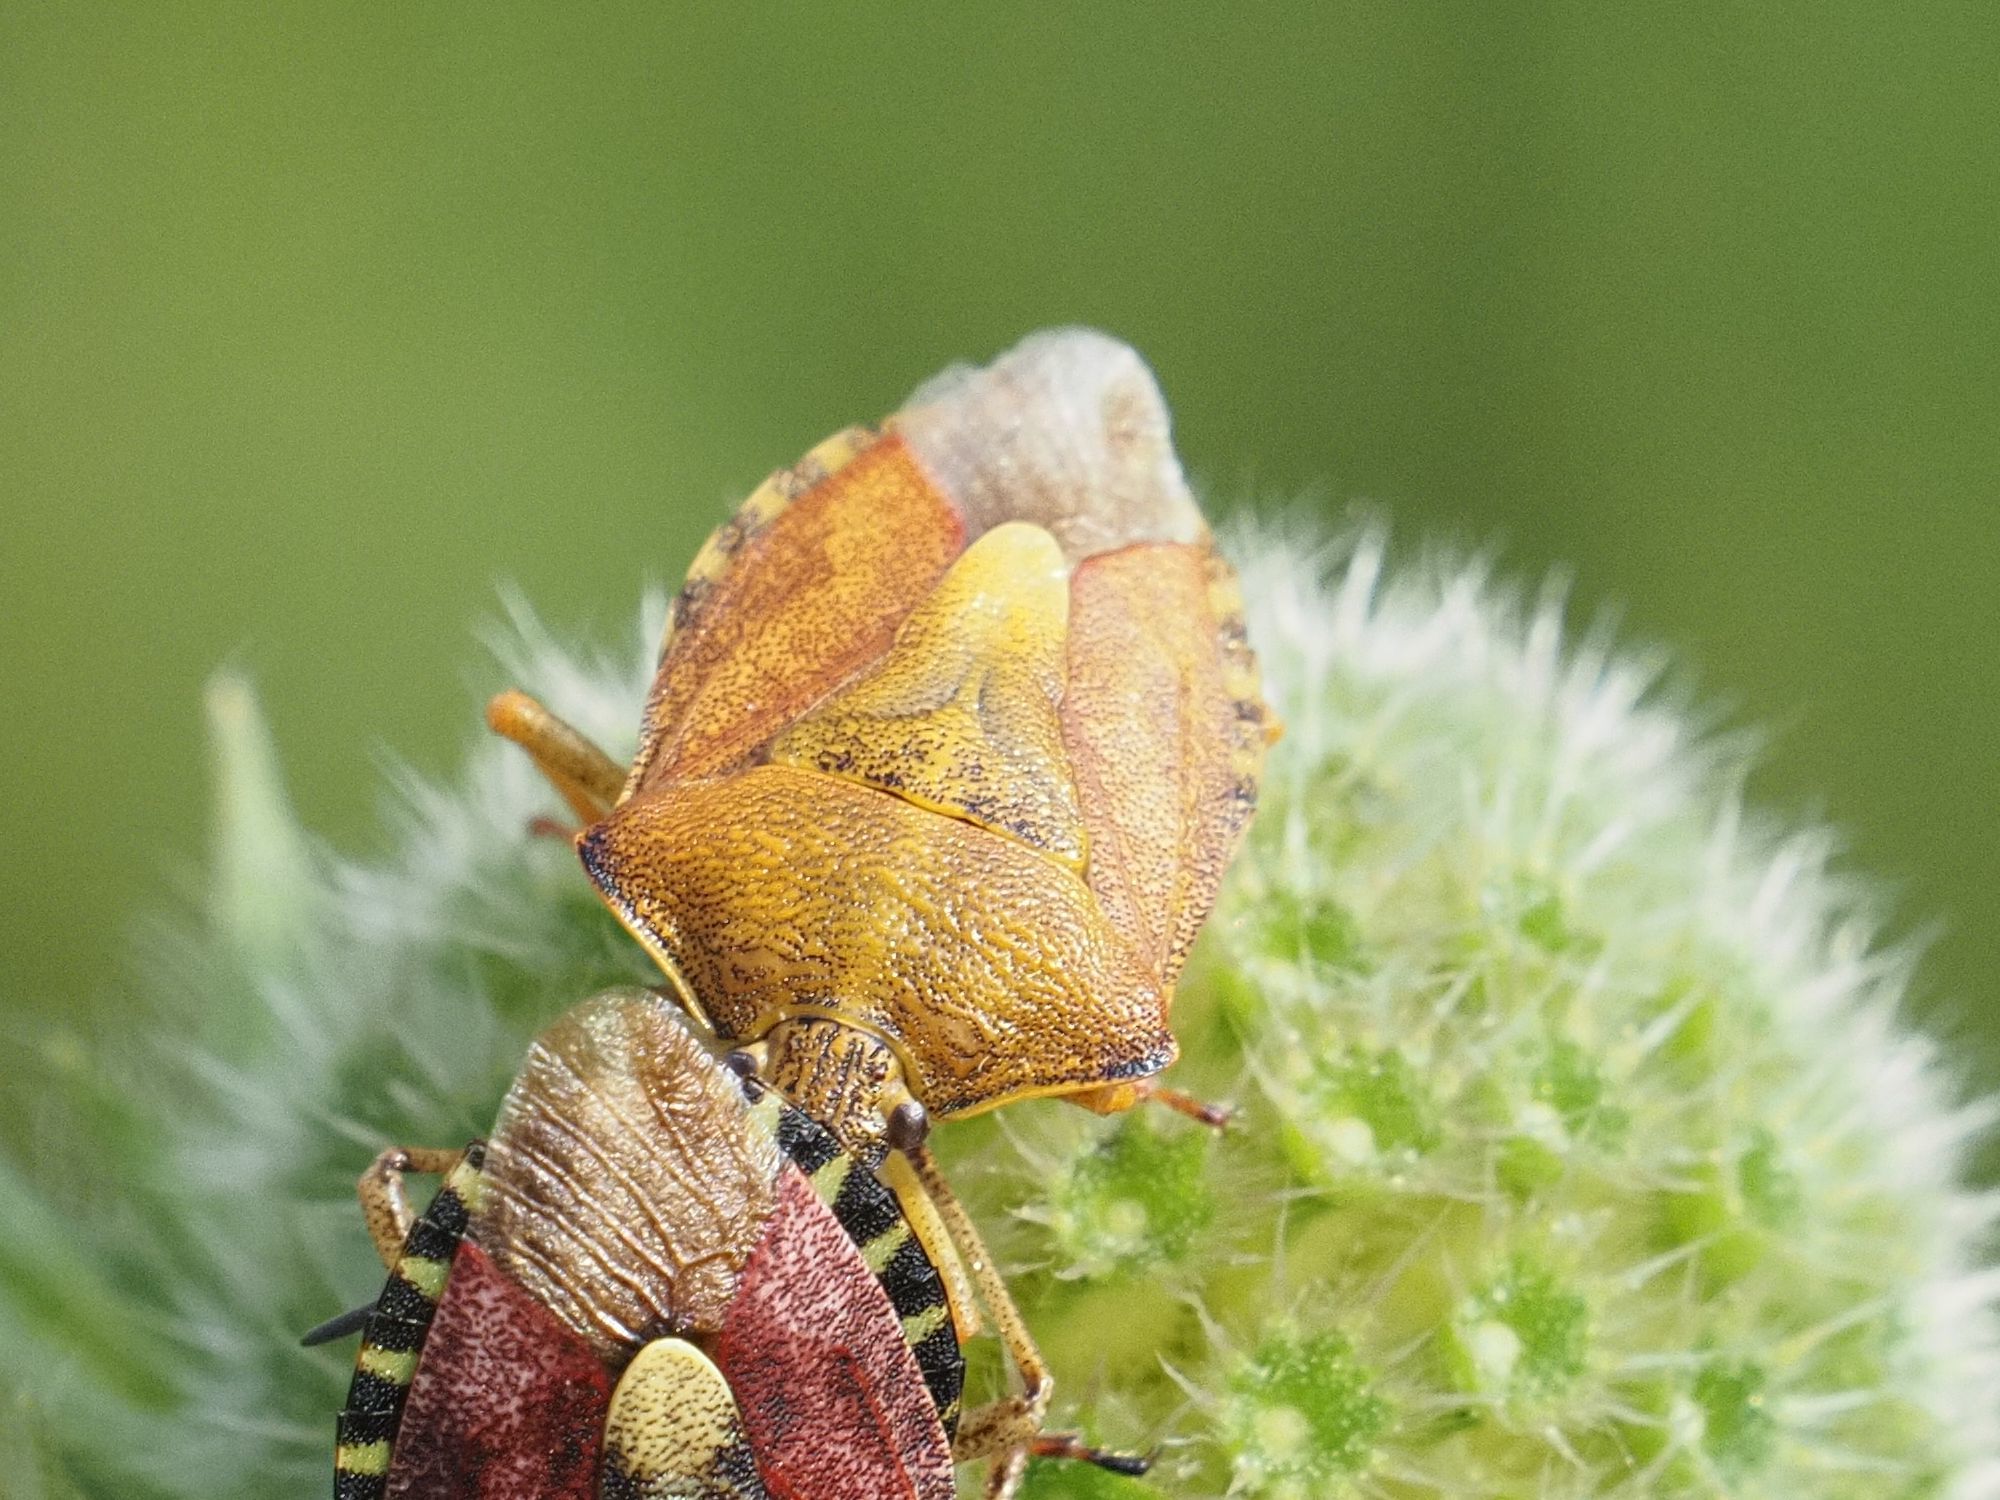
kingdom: Animalia
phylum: Arthropoda
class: Insecta
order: Hemiptera
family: Pentatomidae
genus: Carpocoris
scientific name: Carpocoris purpureipennis
